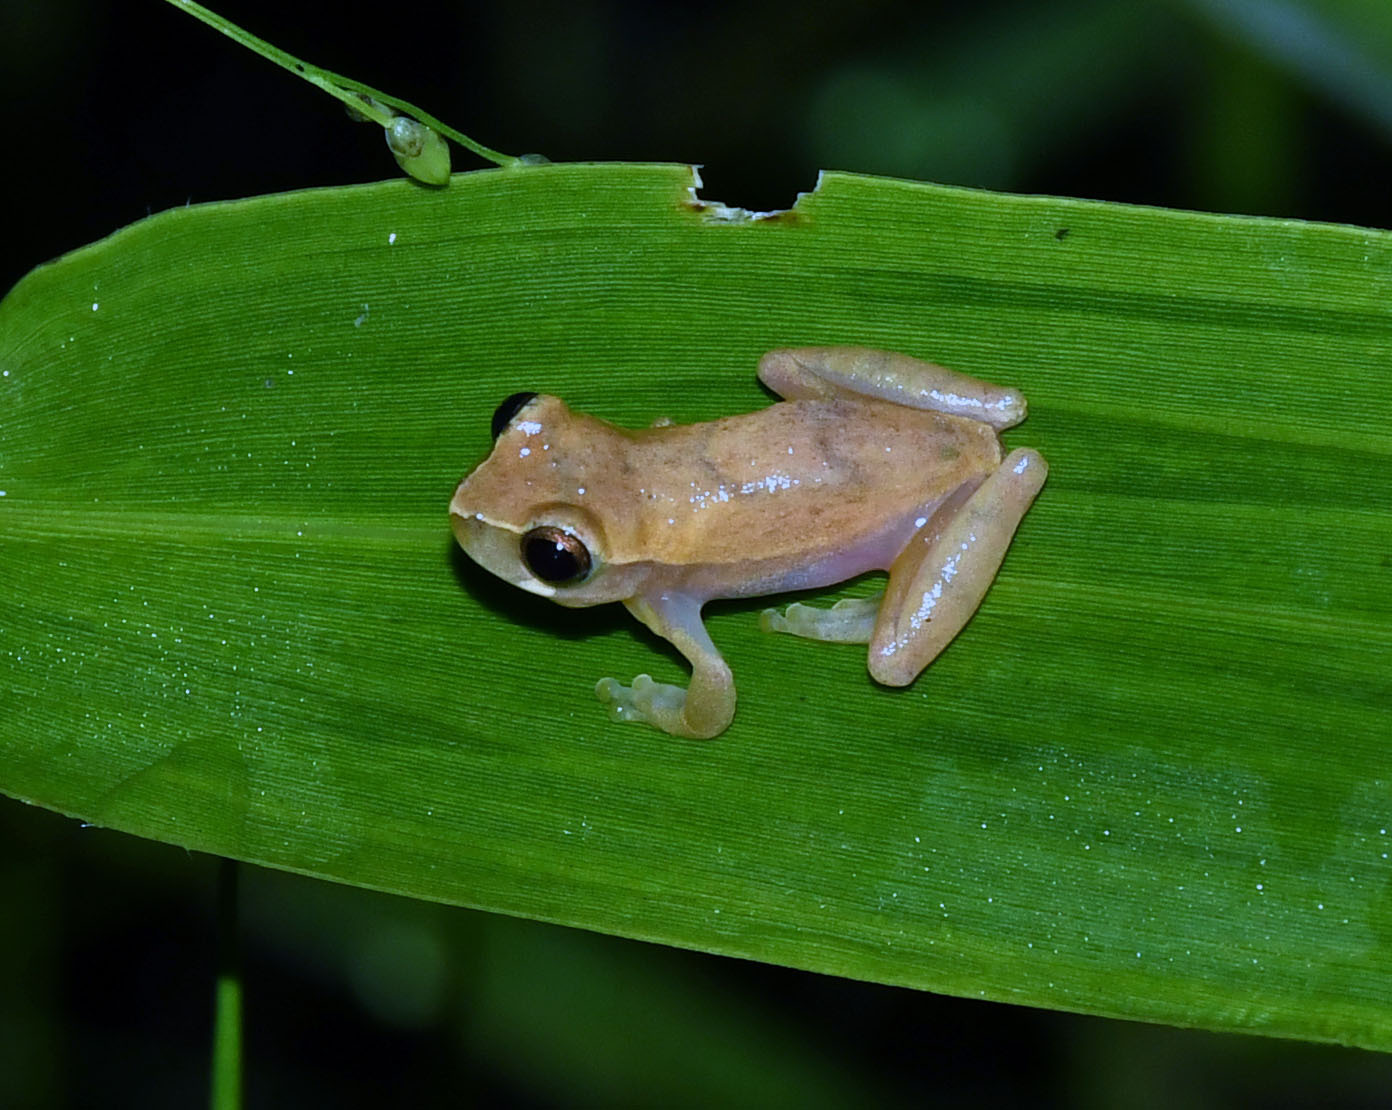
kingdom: Animalia
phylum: Chordata
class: Amphibia
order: Anura
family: Hylidae
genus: Dendropsophus
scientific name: Dendropsophus riveroi
